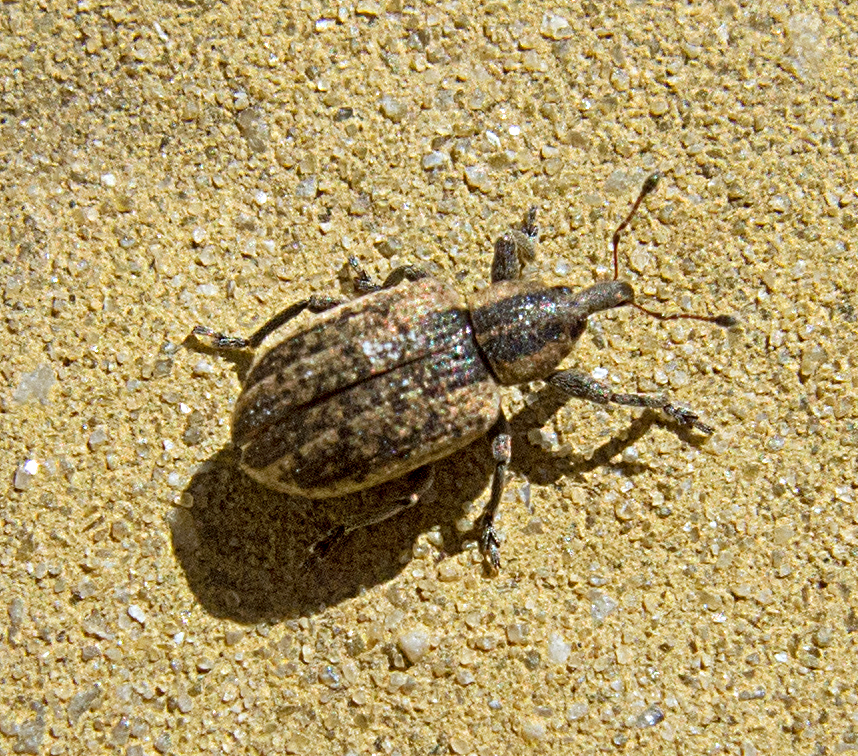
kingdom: Animalia
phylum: Arthropoda
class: Insecta
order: Coleoptera
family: Curculionidae
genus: Hypera
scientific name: Hypera conmaculata
